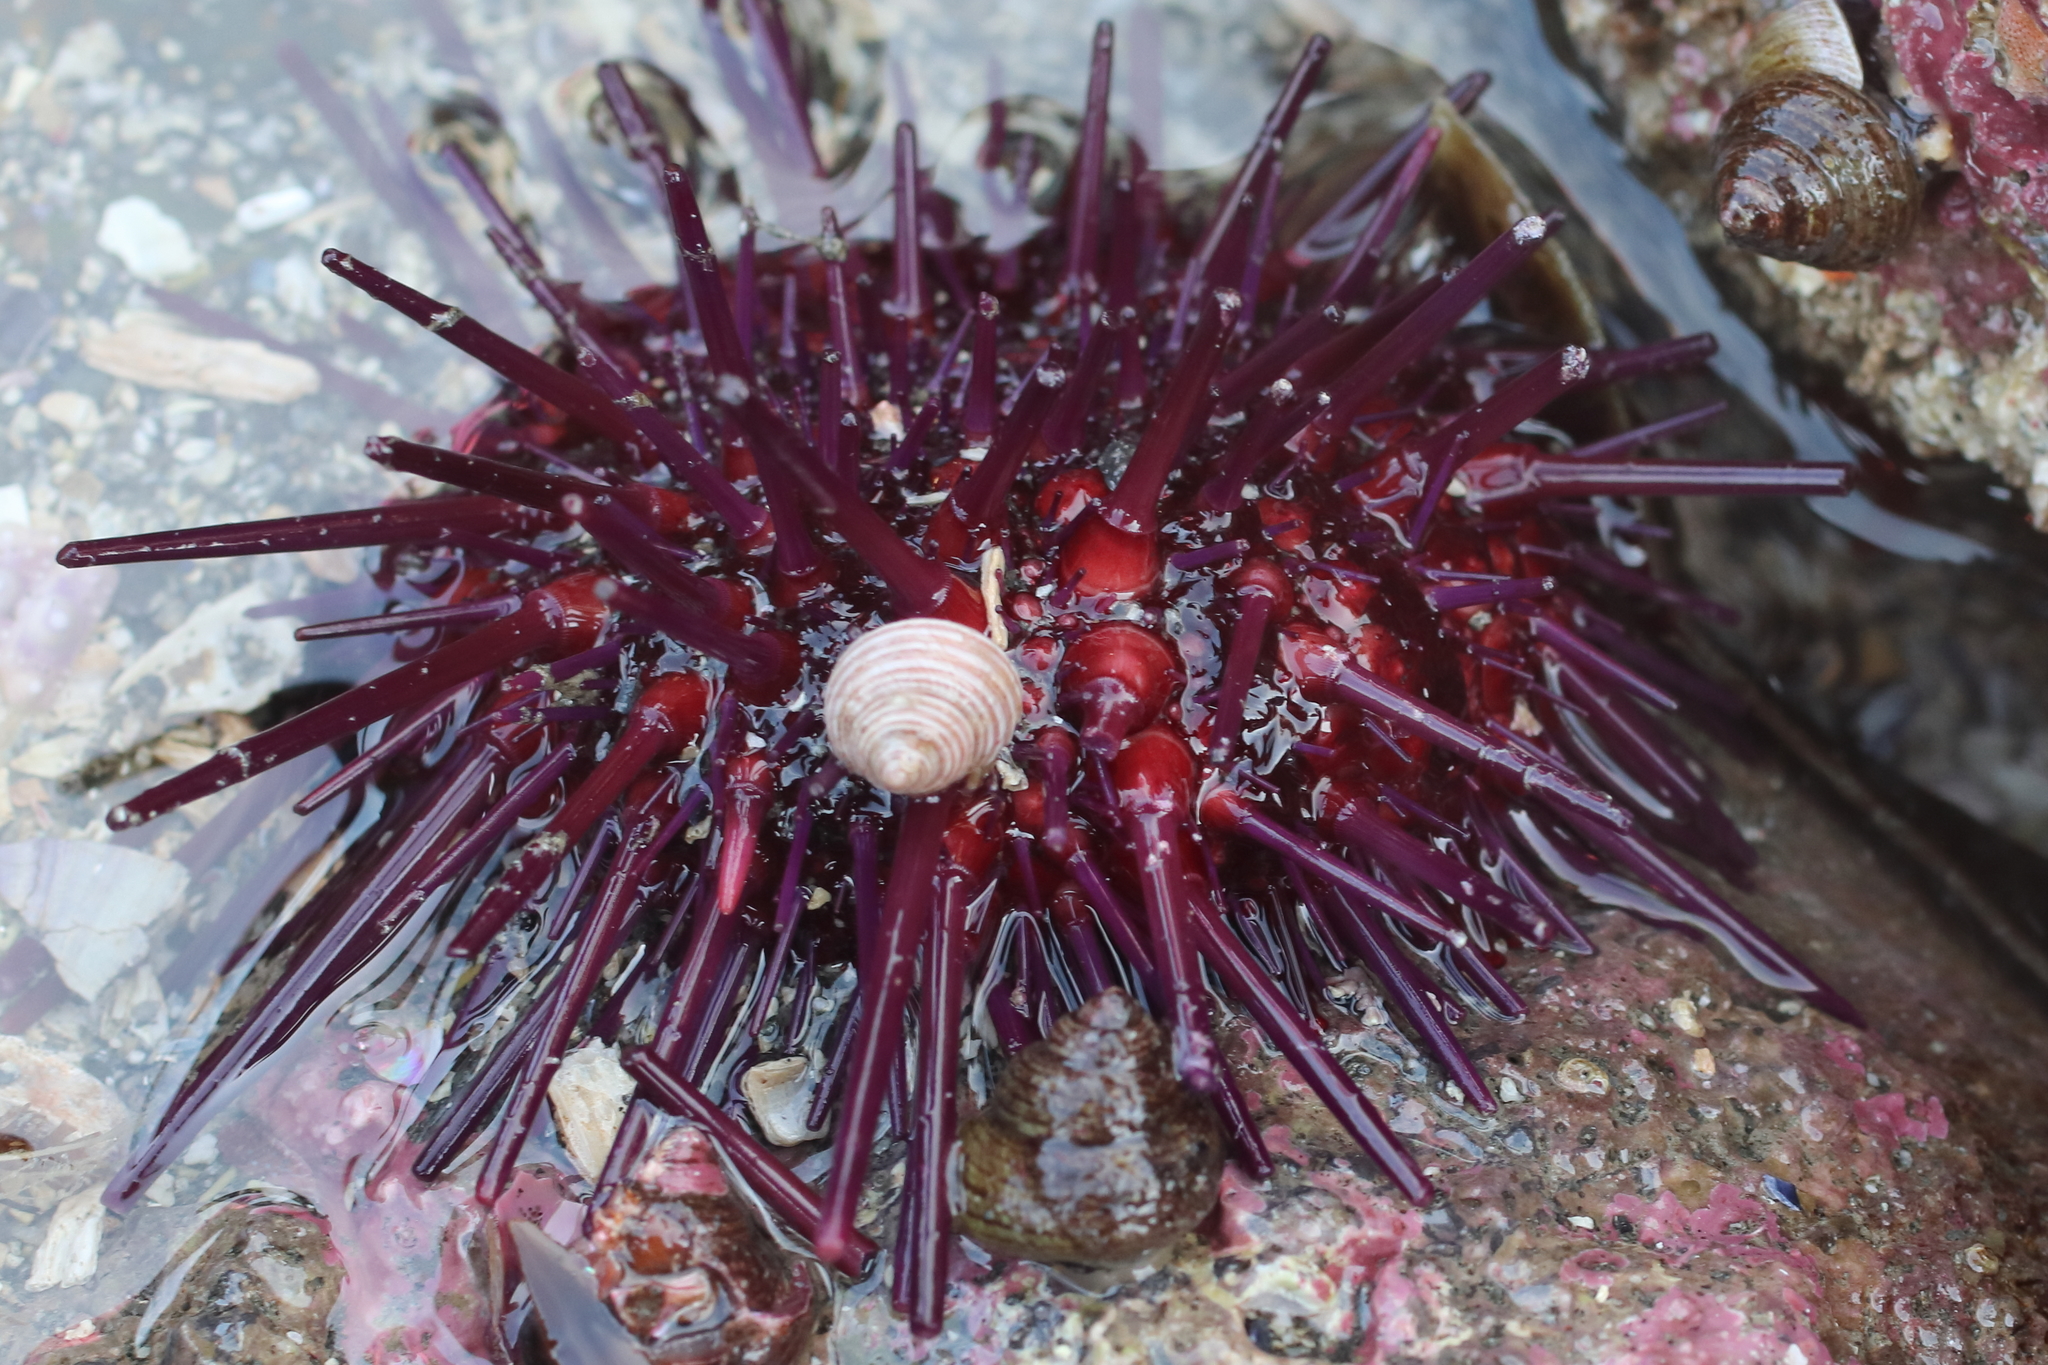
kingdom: Animalia
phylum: Echinodermata
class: Echinoidea
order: Camarodonta
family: Strongylocentrotidae
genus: Mesocentrotus
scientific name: Mesocentrotus franciscanus
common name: Red sea urchin
